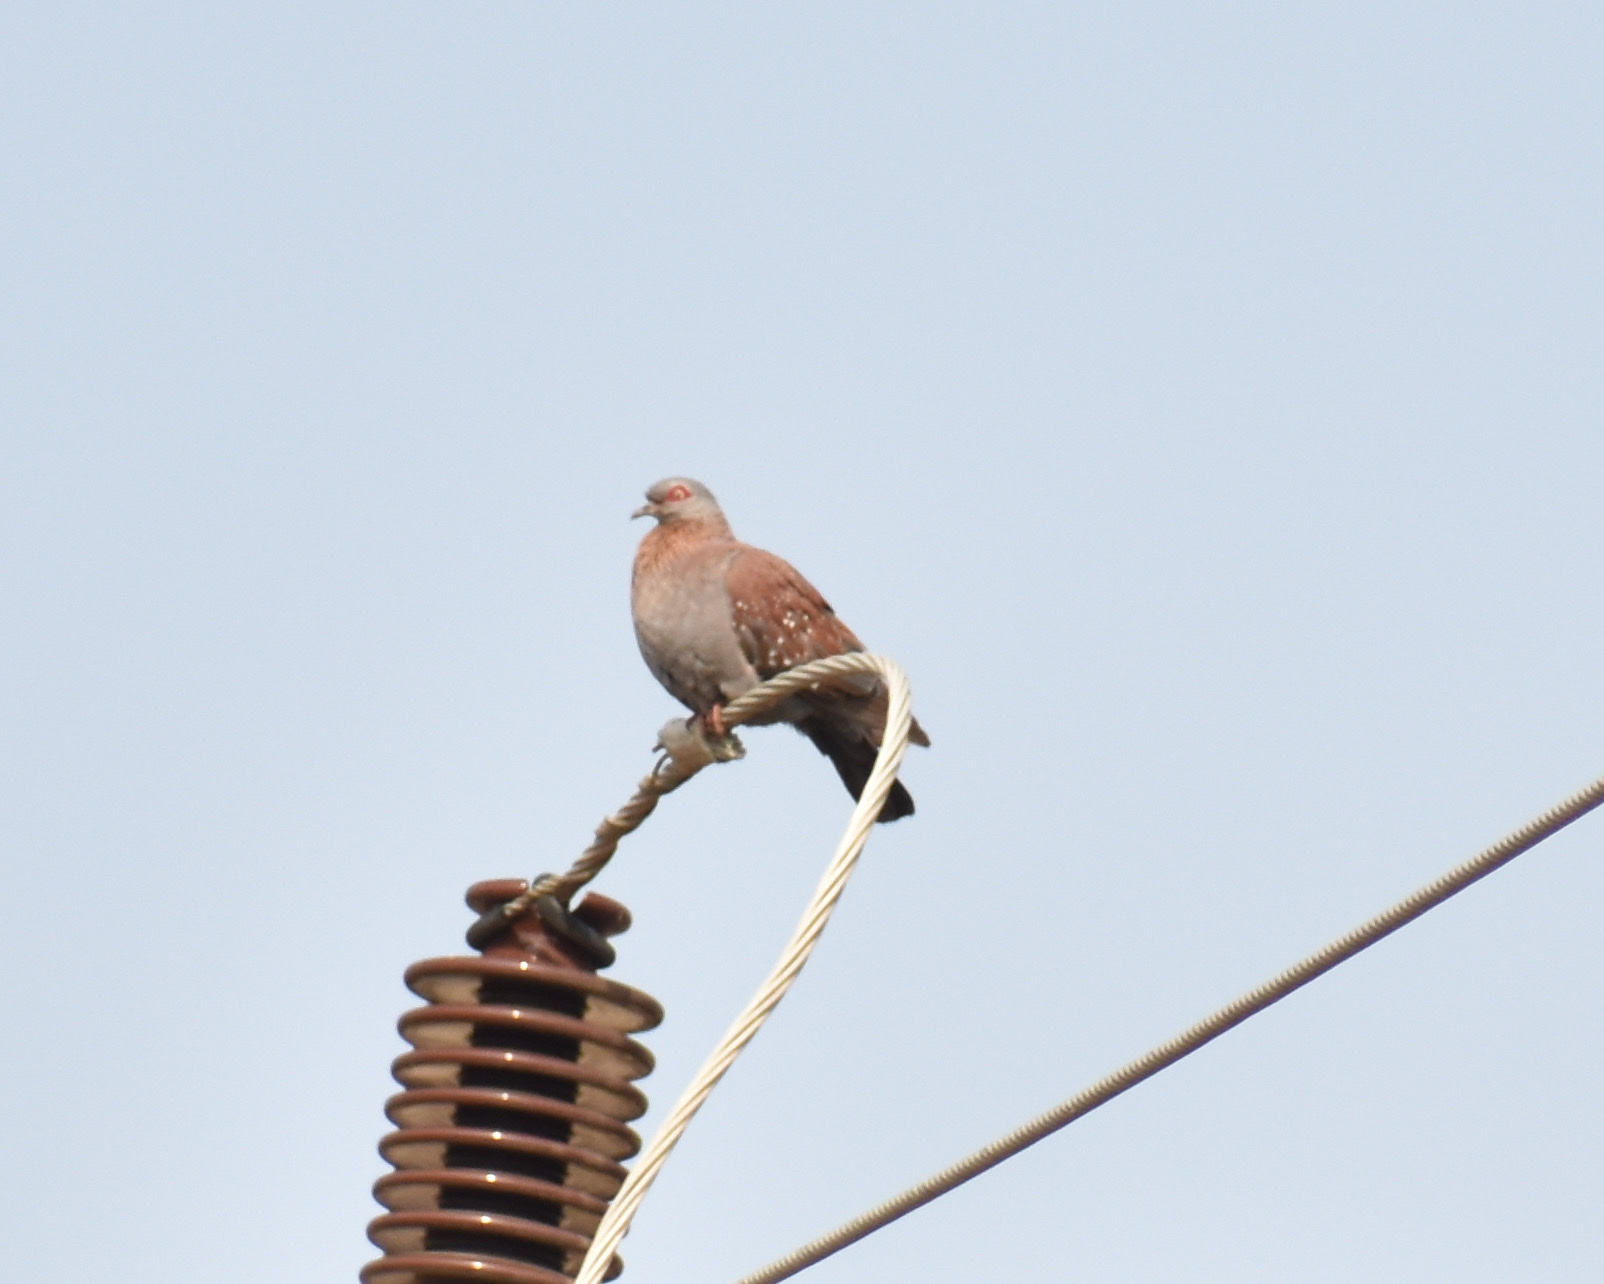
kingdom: Animalia
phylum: Chordata
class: Aves
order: Columbiformes
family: Columbidae
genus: Columba
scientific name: Columba guinea
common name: Speckled pigeon
